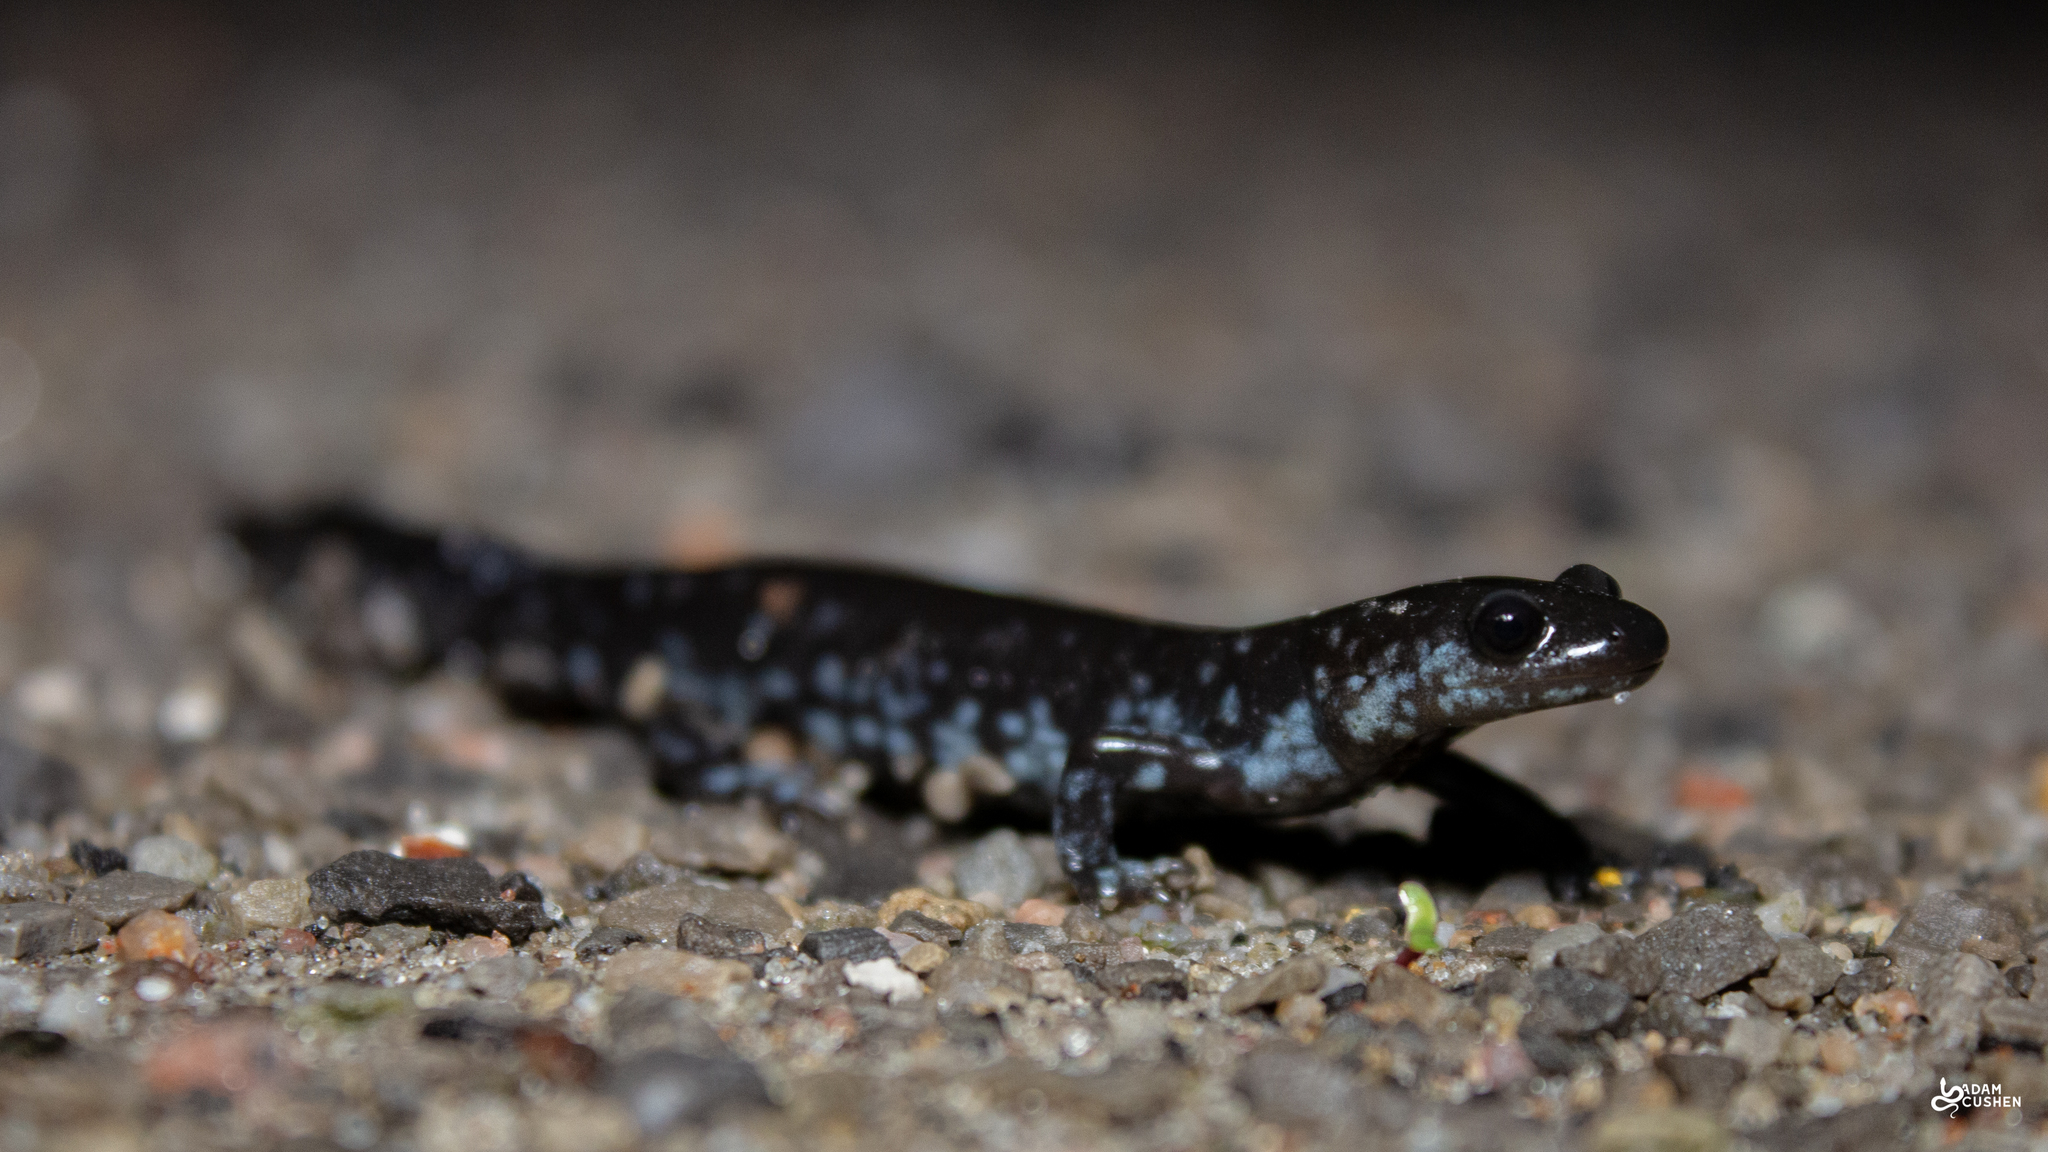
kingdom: Animalia
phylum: Chordata
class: Amphibia
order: Caudata
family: Ambystomatidae
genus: Ambystoma
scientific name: Ambystoma laterale
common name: Blue-spotted salamander
